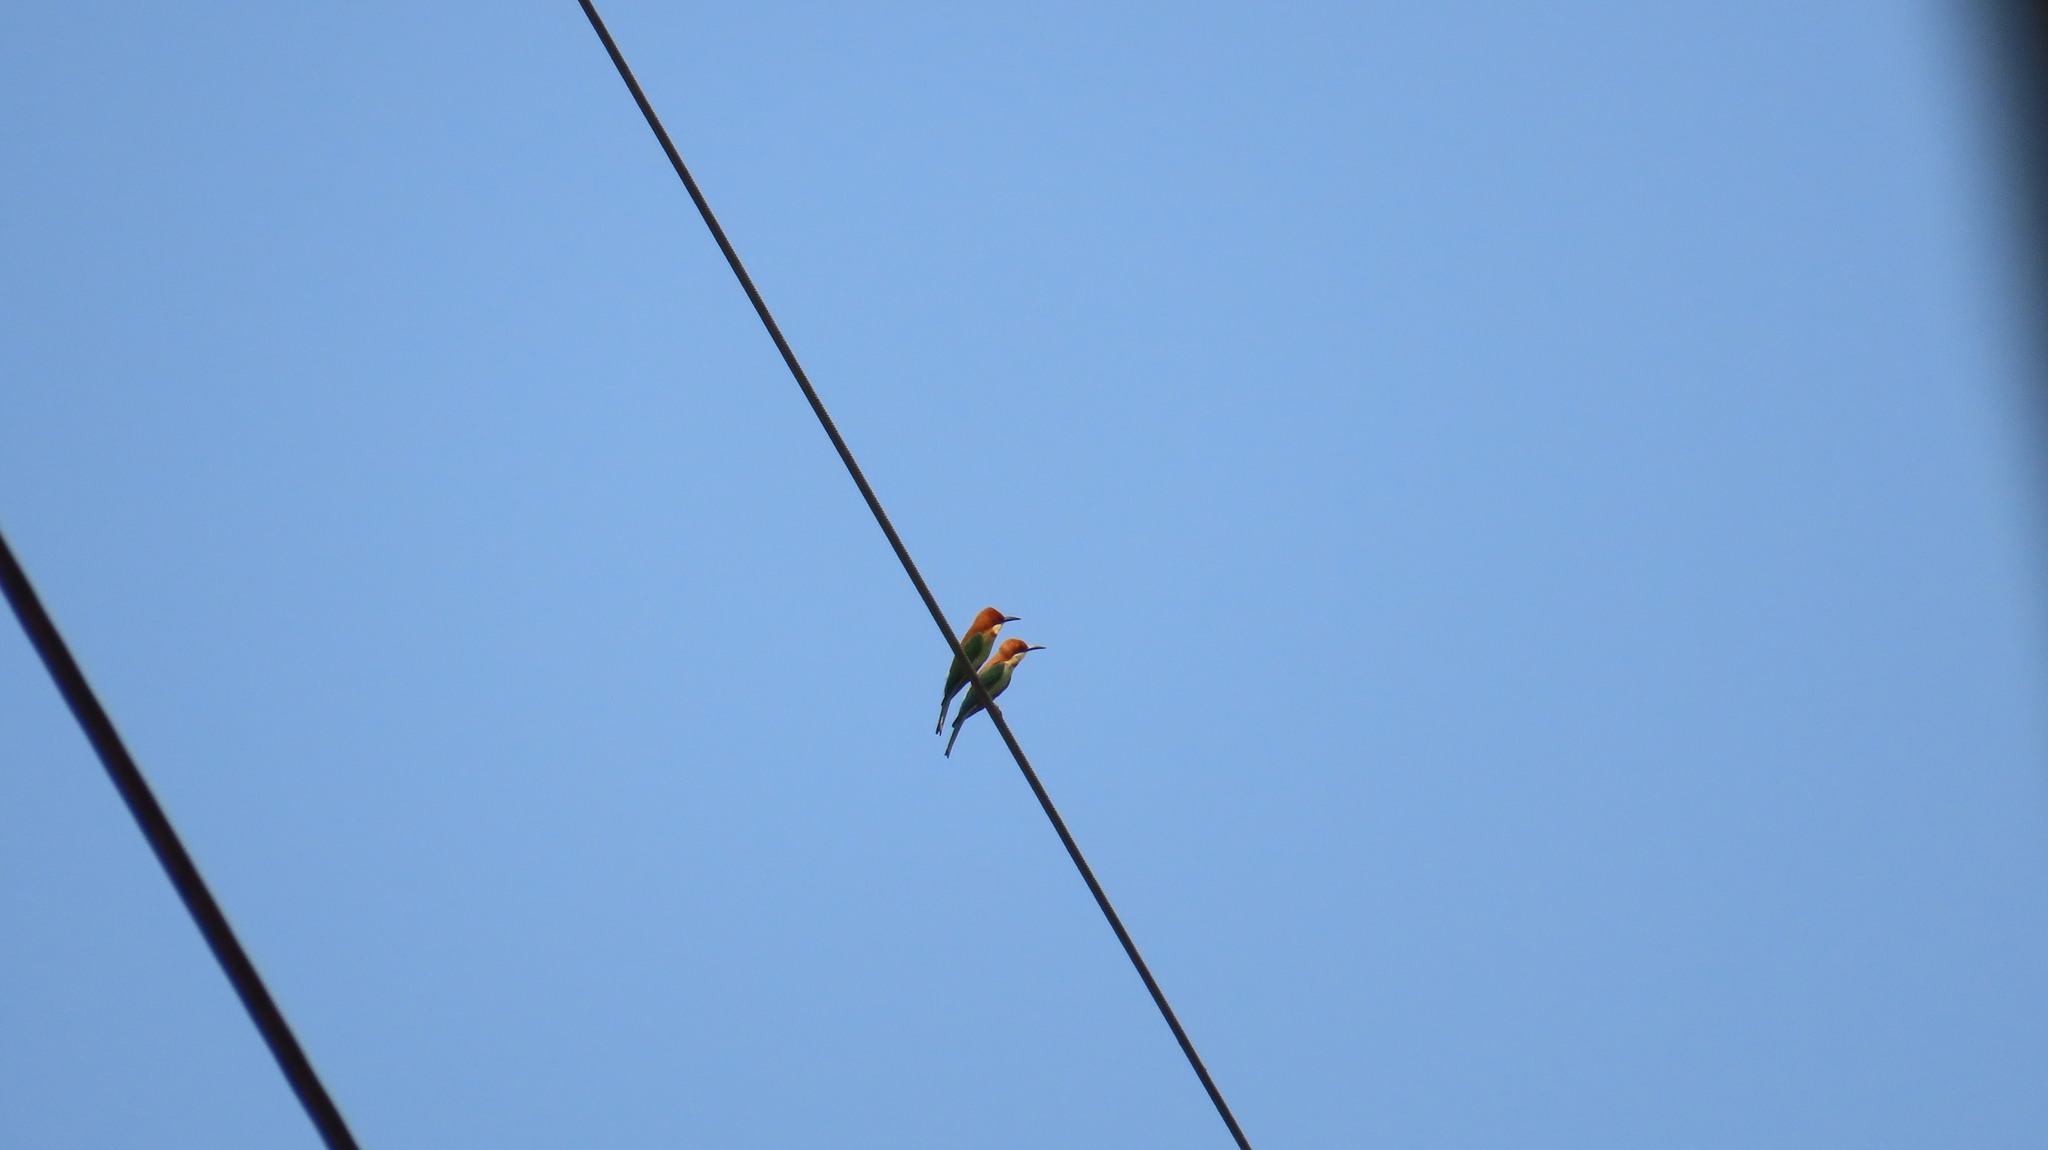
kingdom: Animalia
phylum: Chordata
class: Aves
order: Coraciiformes
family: Meropidae
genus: Merops
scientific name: Merops leschenaulti
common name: Chestnut-headed bee-eater
